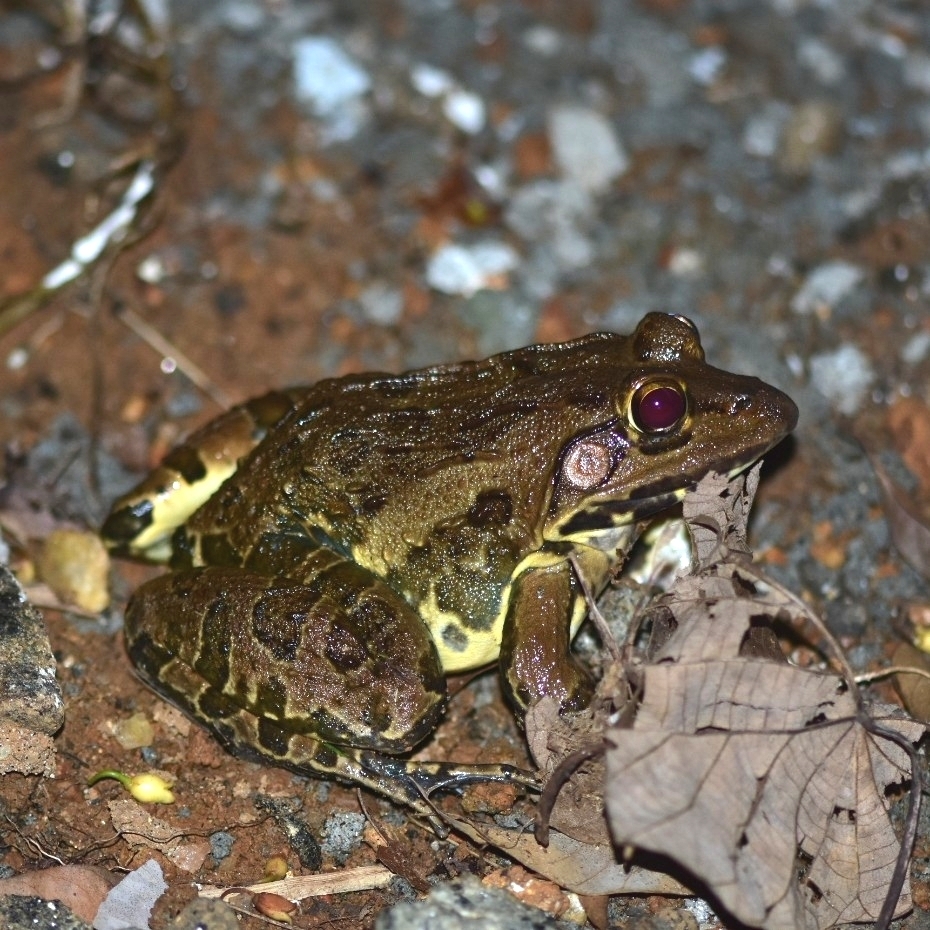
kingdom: Animalia
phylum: Chordata
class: Amphibia
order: Anura
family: Dicroglossidae
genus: Hoplobatrachus
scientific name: Hoplobatrachus tigerinus
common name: Indian bullfrog
